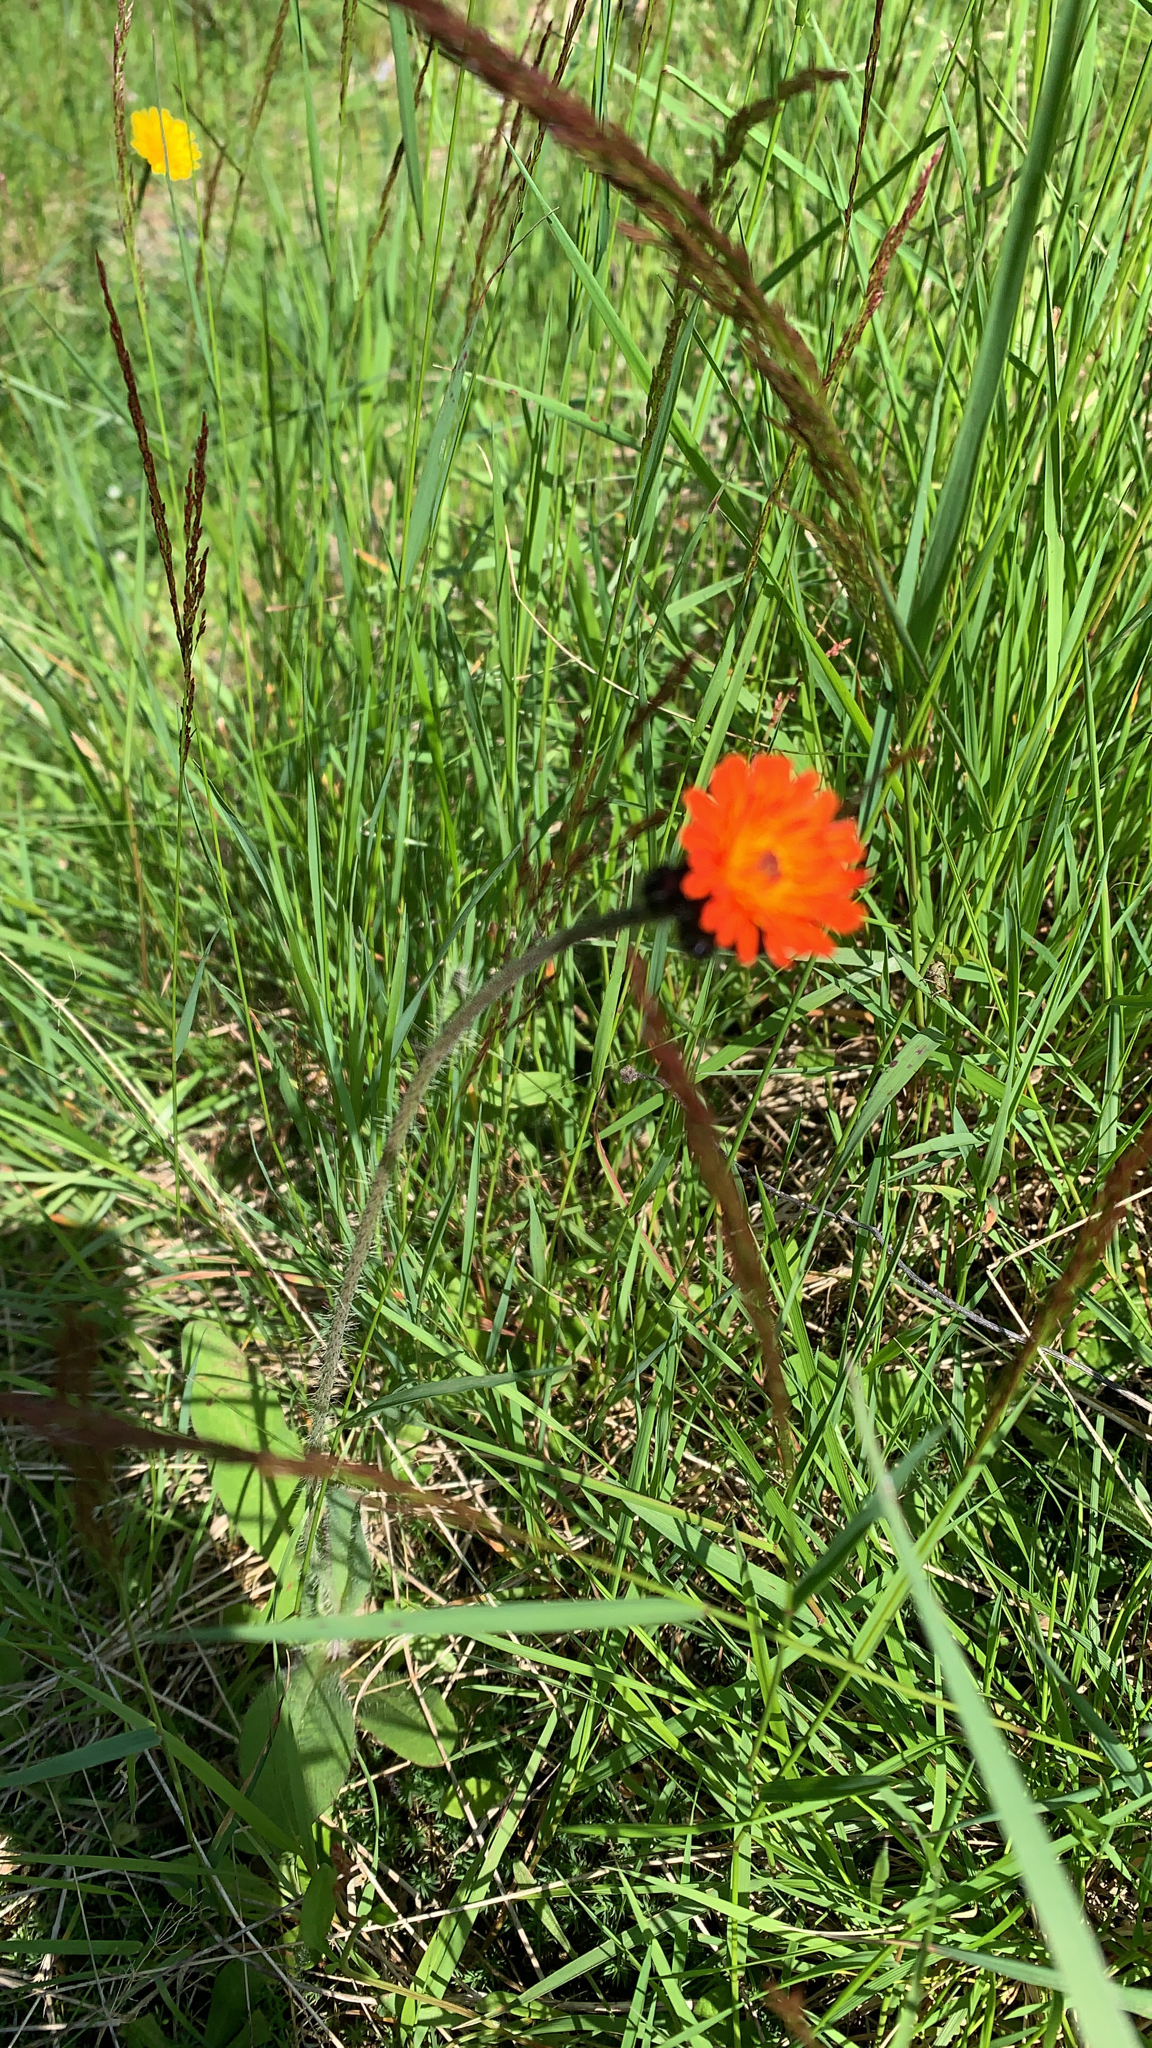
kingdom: Plantae
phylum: Tracheophyta
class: Magnoliopsida
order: Asterales
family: Asteraceae
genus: Pilosella
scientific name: Pilosella aurantiaca
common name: Fox-and-cubs
